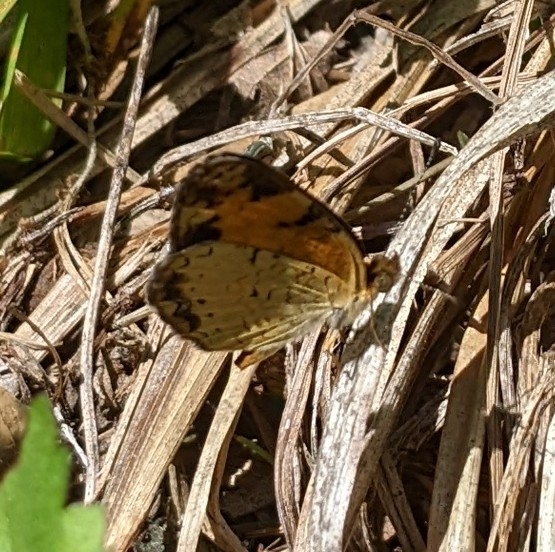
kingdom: Animalia
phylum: Arthropoda
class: Insecta
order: Lepidoptera
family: Nymphalidae
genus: Phyciodes
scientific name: Phyciodes tharos
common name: Pearl crescent
